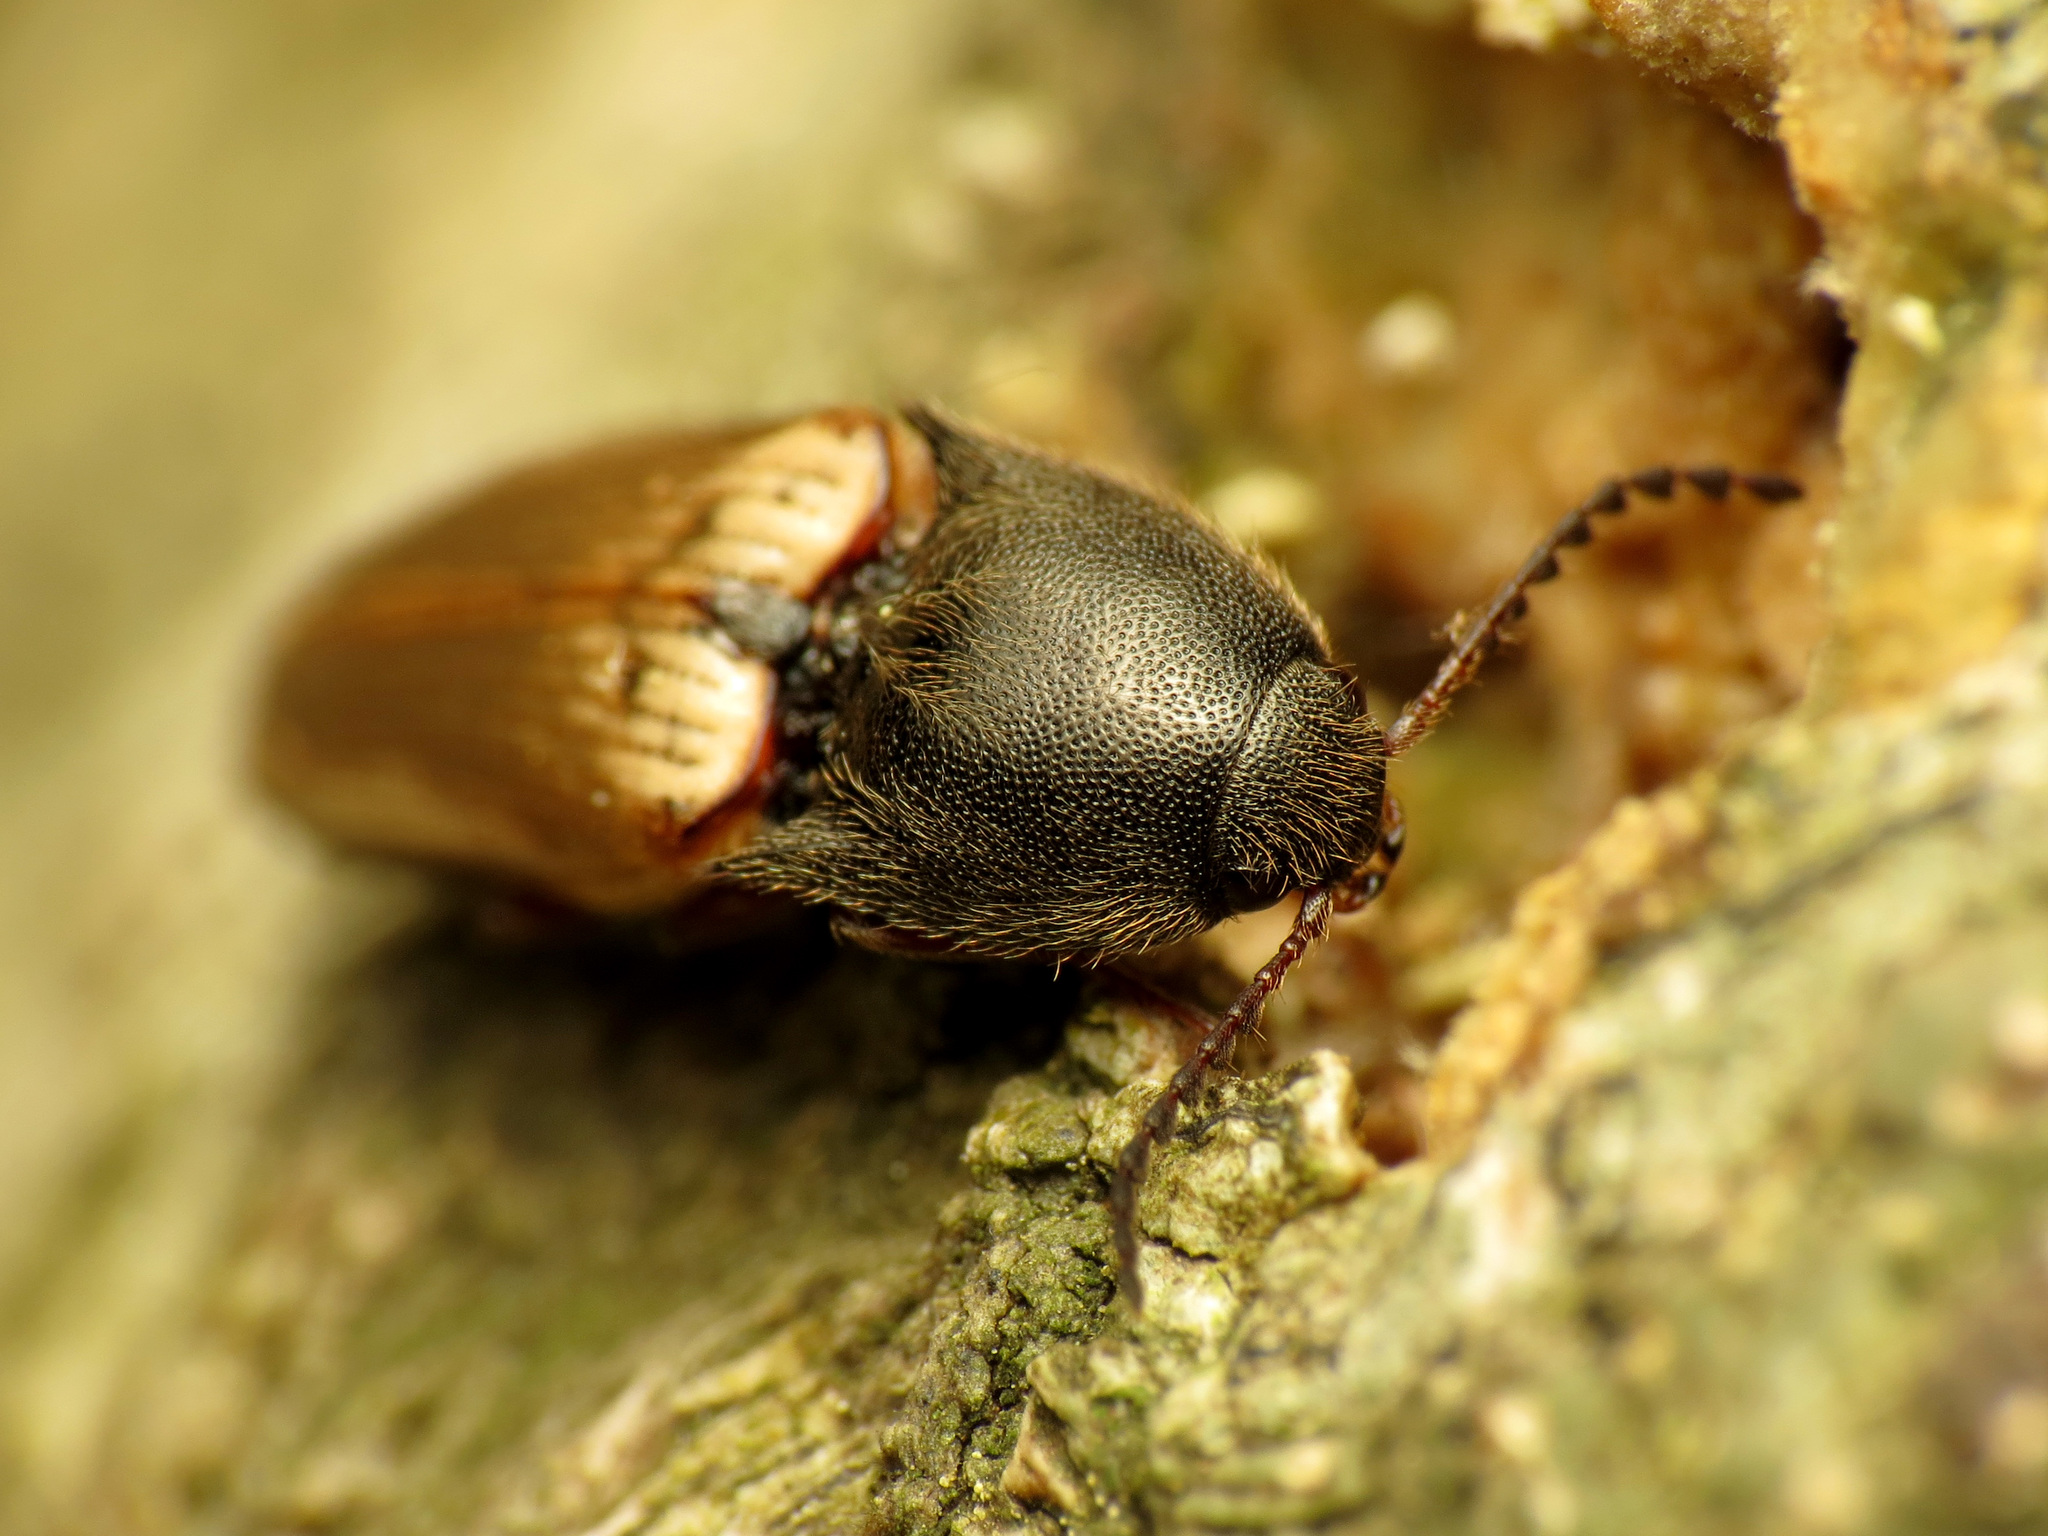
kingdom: Animalia
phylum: Arthropoda
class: Insecta
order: Coleoptera
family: Elateridae
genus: Ampedus
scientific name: Ampedus nigricollis
